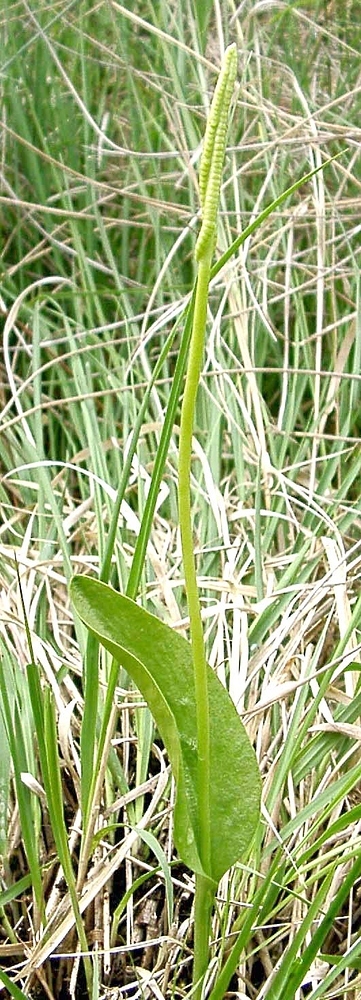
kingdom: Plantae
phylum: Tracheophyta
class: Polypodiopsida
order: Ophioglossales
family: Ophioglossaceae
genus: Ophioglossum
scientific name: Ophioglossum vulgatum
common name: Adder's-tongue
